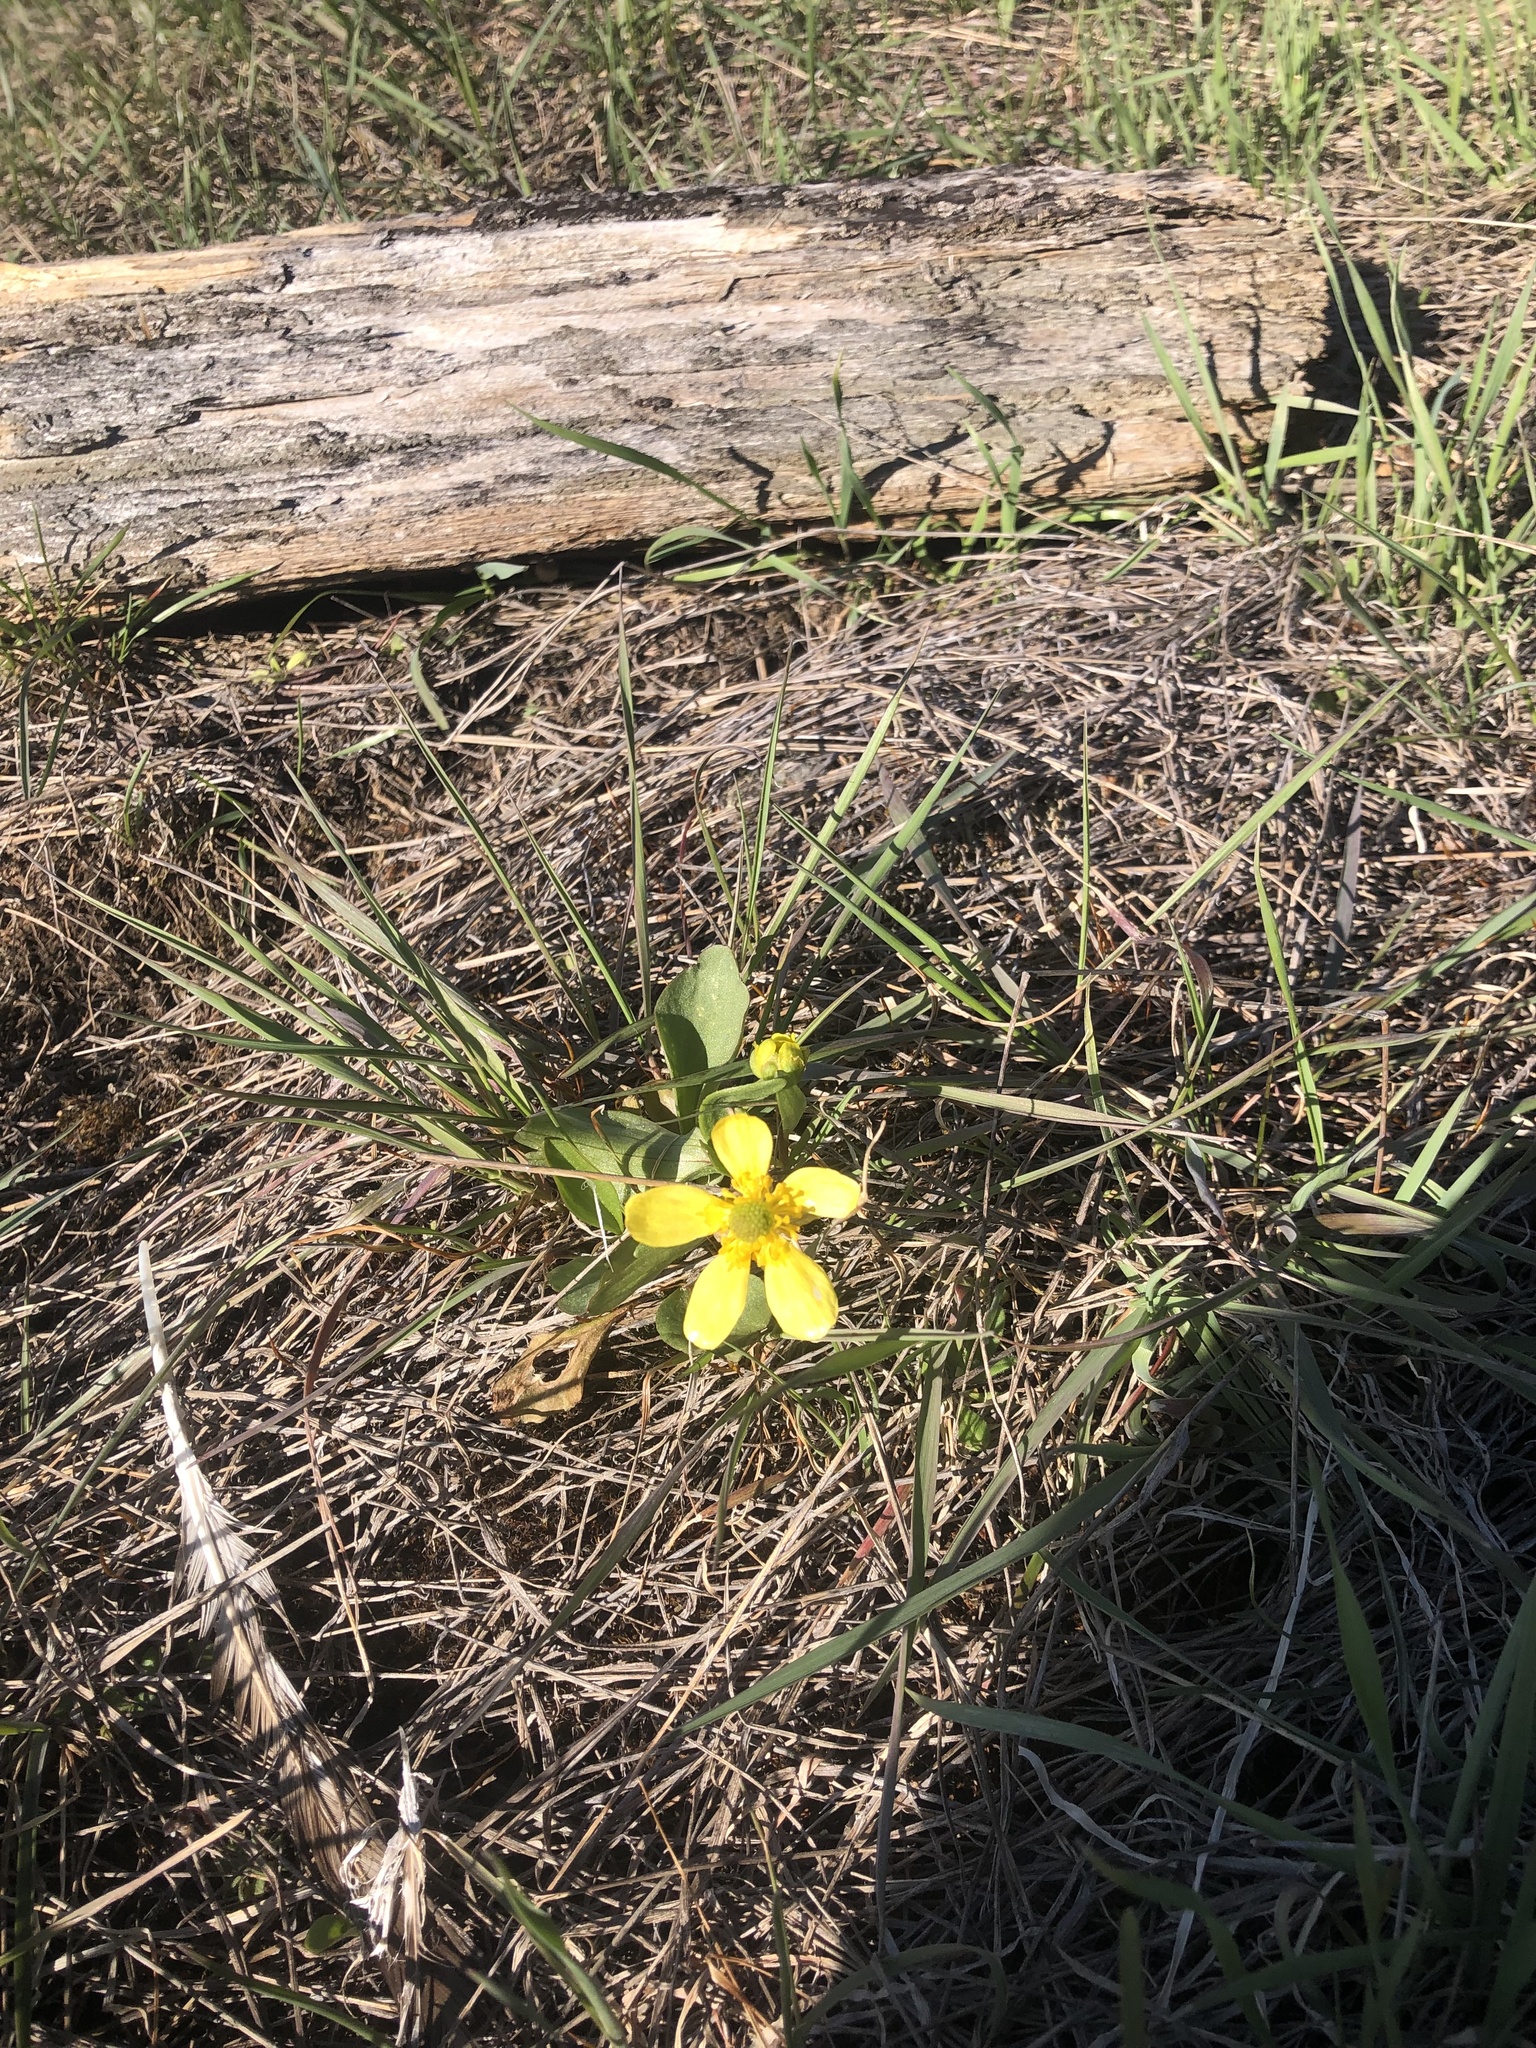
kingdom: Plantae
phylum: Tracheophyta
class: Magnoliopsida
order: Ranunculales
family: Ranunculaceae
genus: Ranunculus
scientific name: Ranunculus glaberrimus
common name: Sagebrush buttercup
